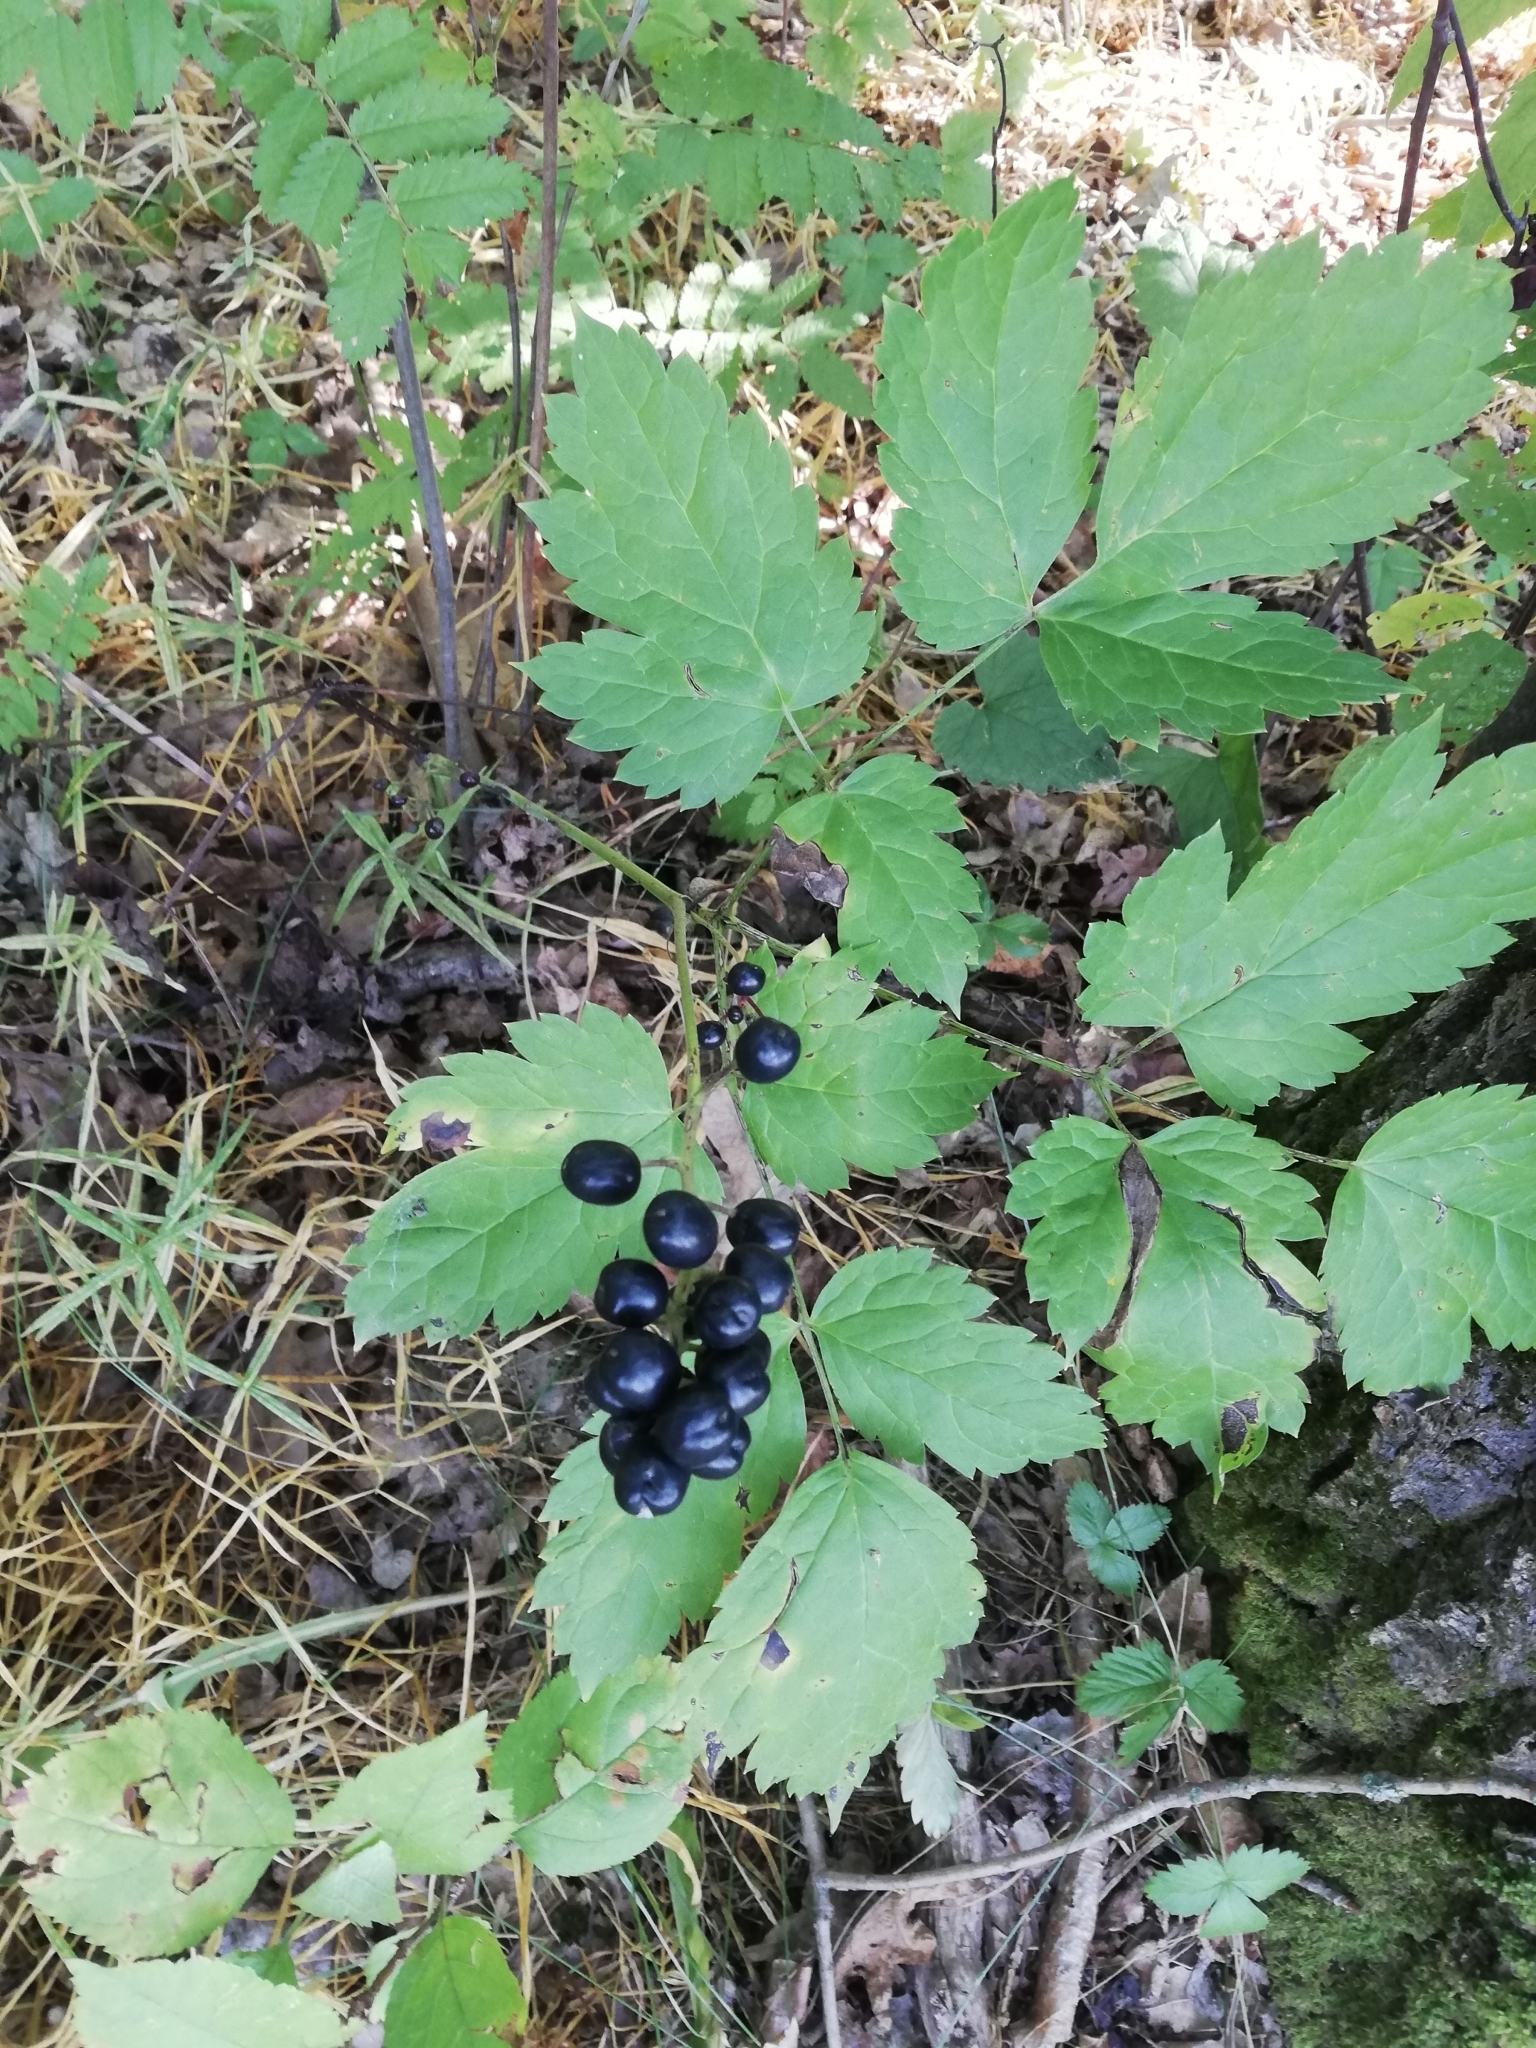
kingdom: Plantae
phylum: Tracheophyta
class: Magnoliopsida
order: Ranunculales
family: Ranunculaceae
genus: Actaea
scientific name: Actaea spicata
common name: Baneberry
